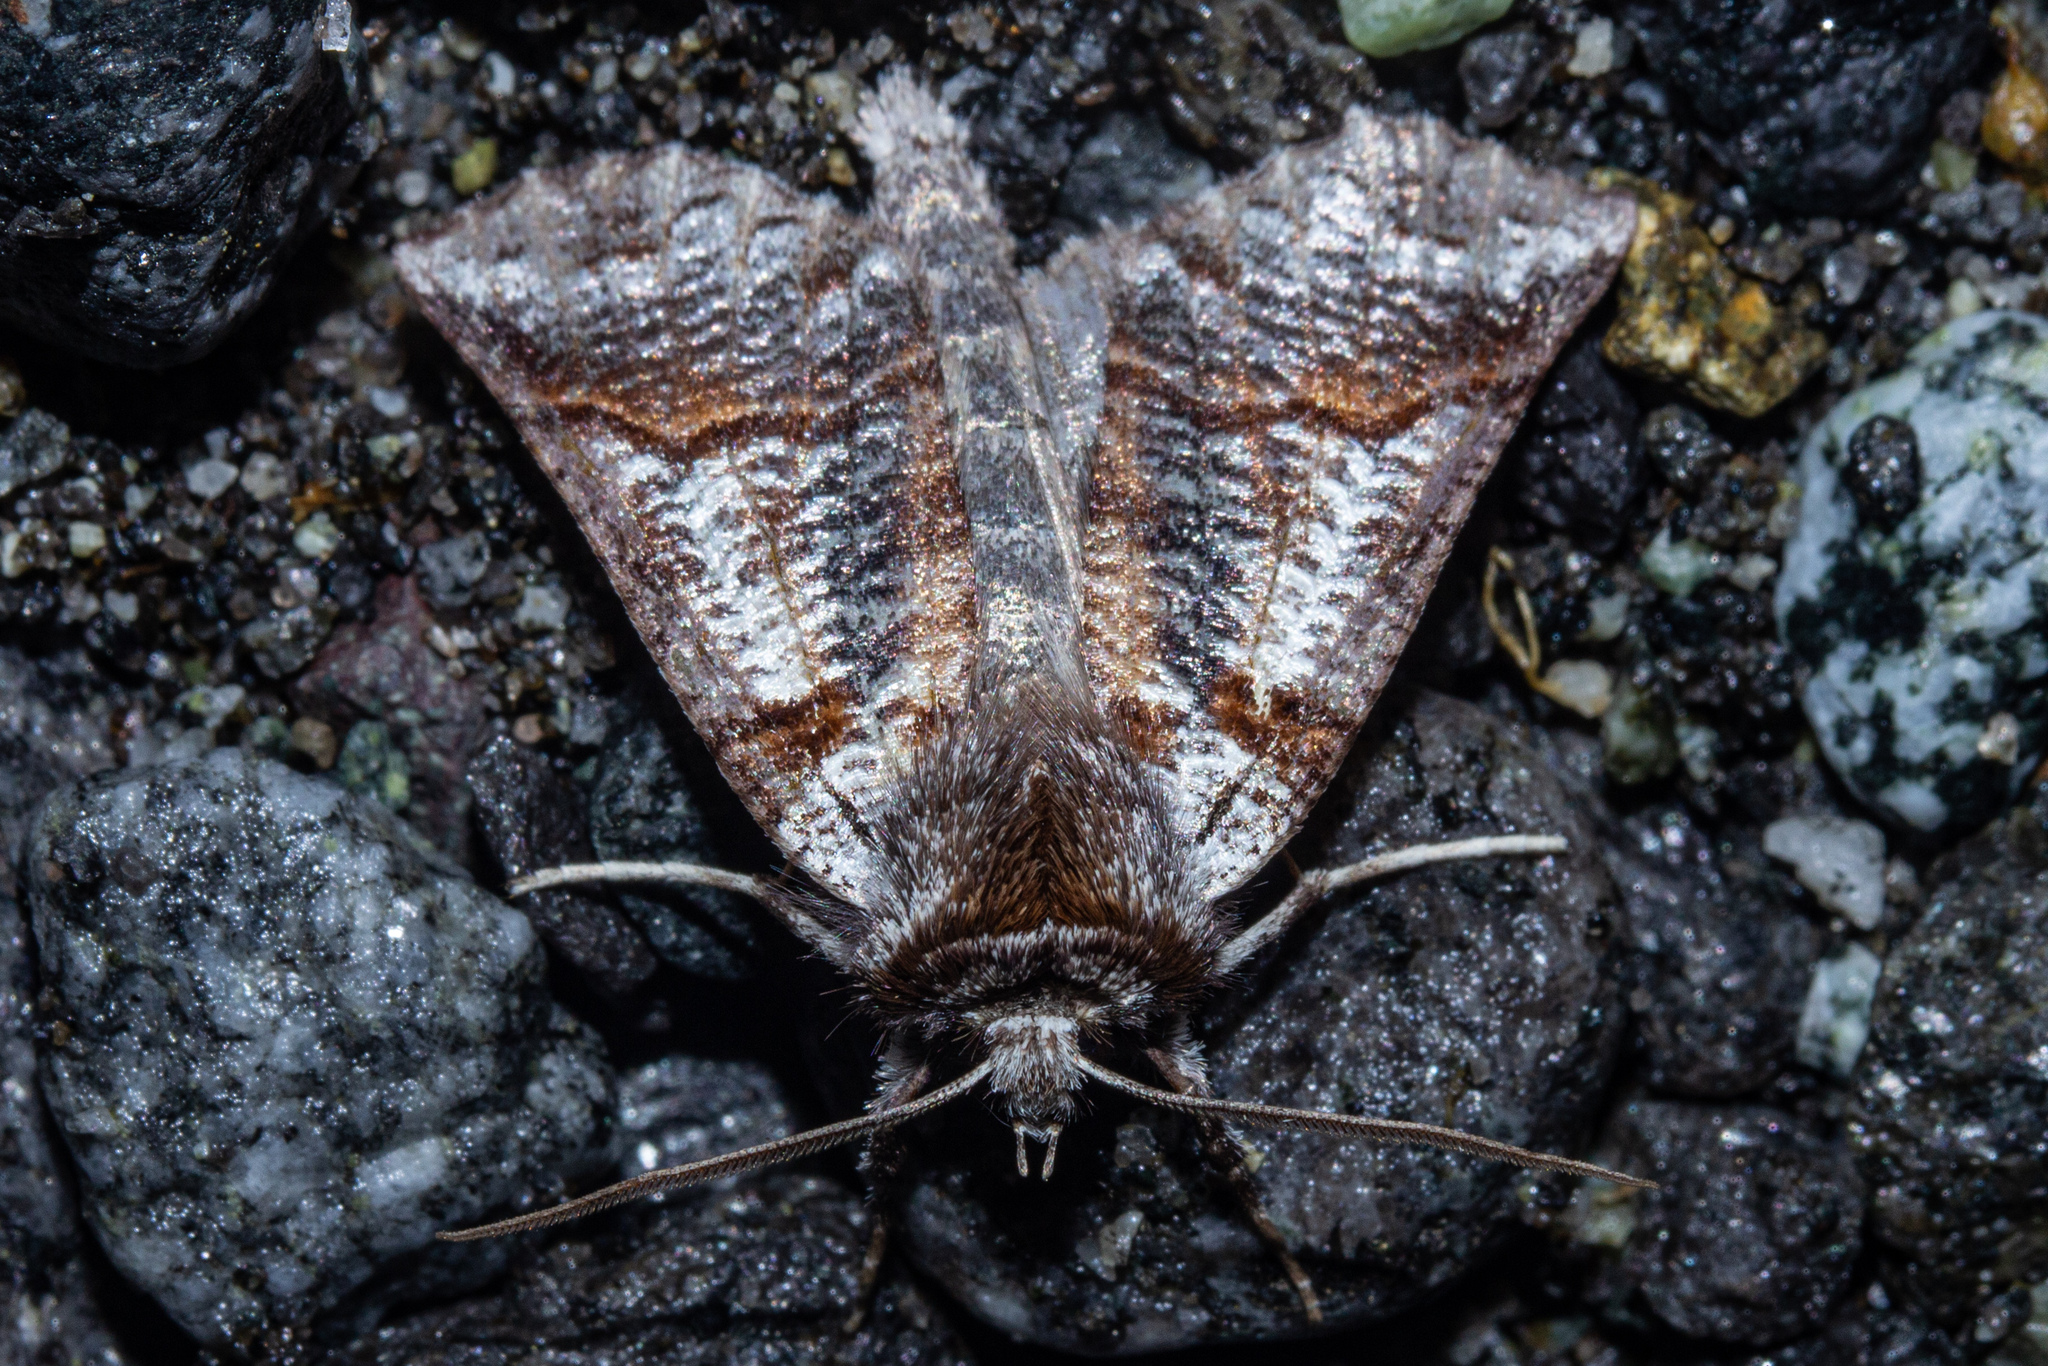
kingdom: Animalia
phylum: Arthropoda
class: Insecta
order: Lepidoptera
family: Geometridae
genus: Declana
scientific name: Declana
